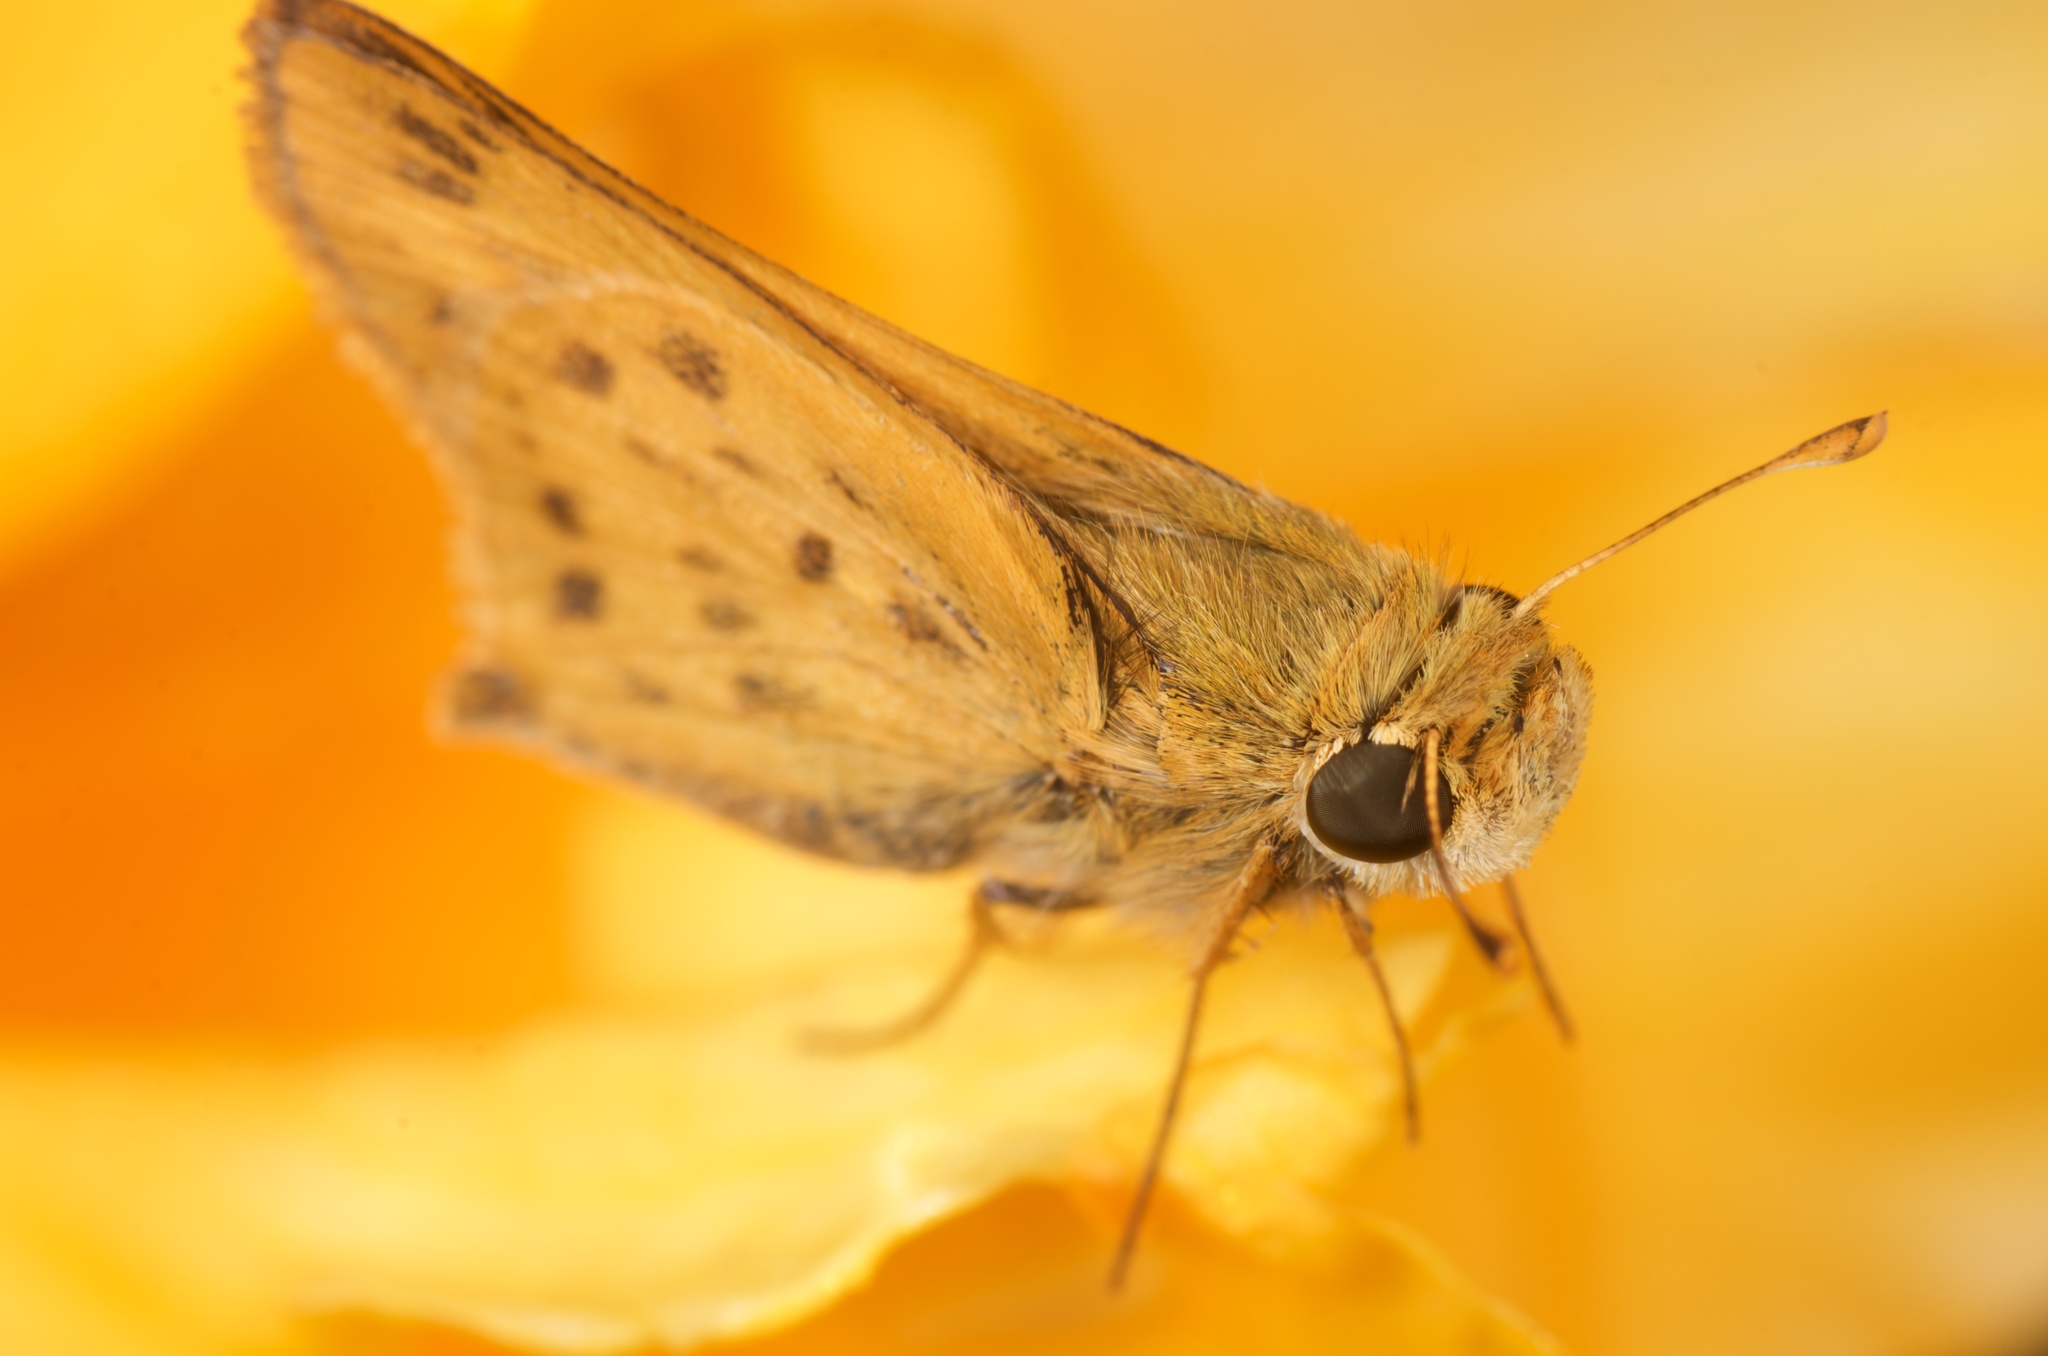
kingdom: Animalia
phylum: Arthropoda
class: Insecta
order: Lepidoptera
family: Hesperiidae
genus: Hylephila
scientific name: Hylephila phyleus
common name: Fiery skipper
